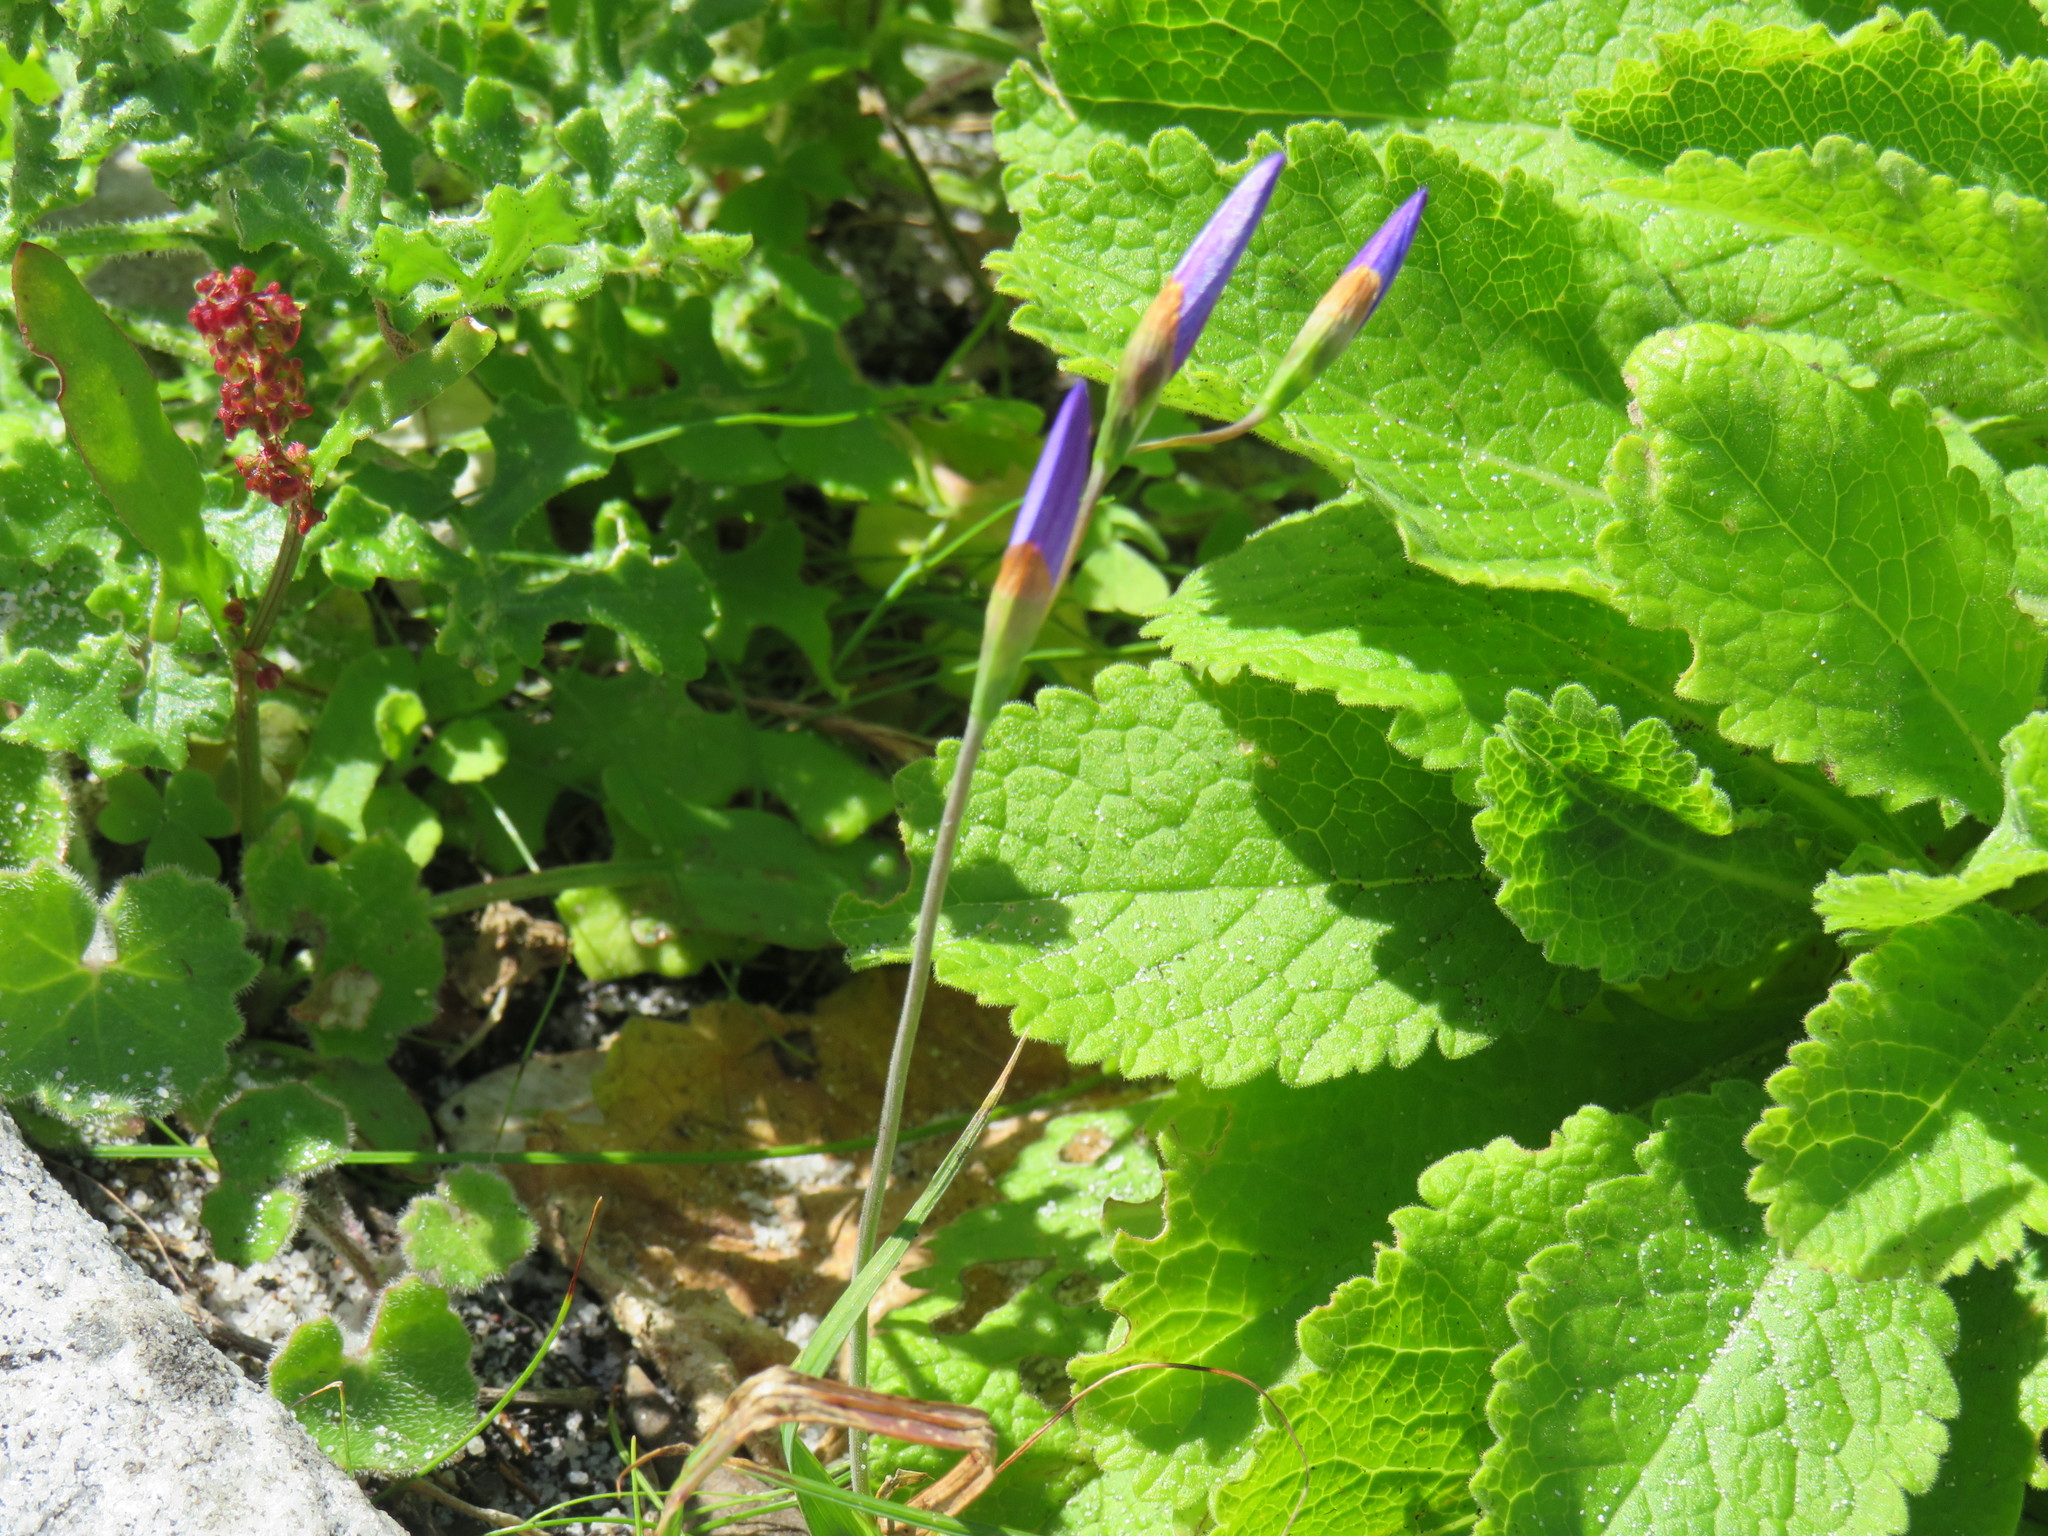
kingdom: Plantae
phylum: Tracheophyta
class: Liliopsida
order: Asparagales
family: Iridaceae
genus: Geissorhiza
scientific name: Geissorhiza aspera
